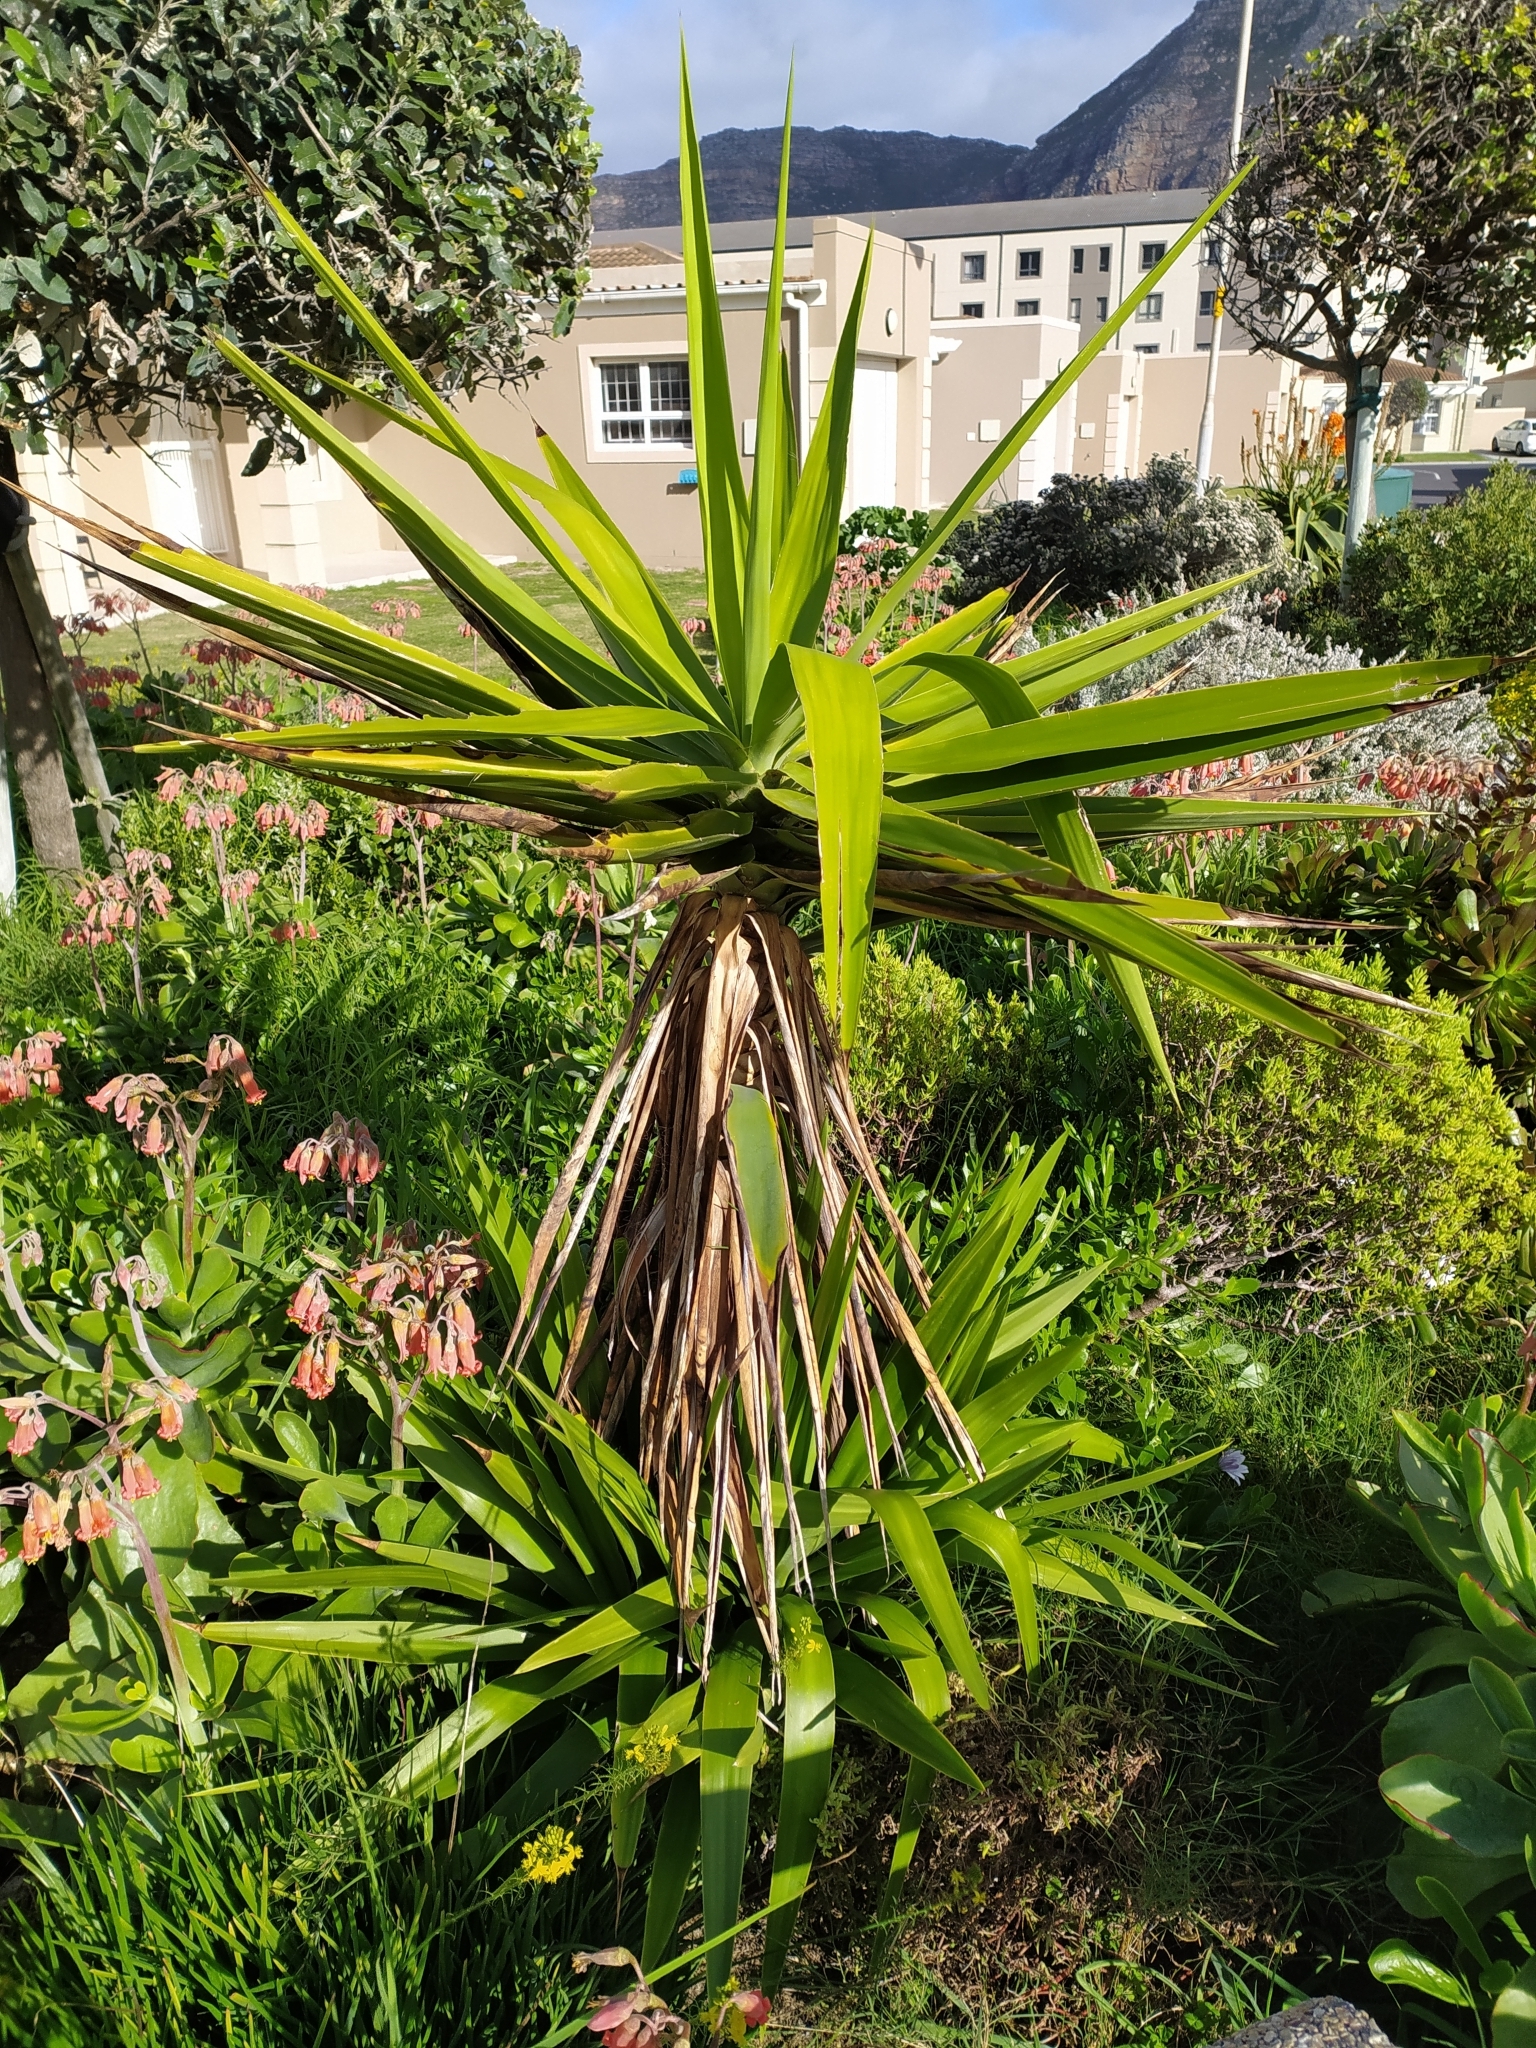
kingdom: Plantae
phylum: Tracheophyta
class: Liliopsida
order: Asparagales
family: Asparagaceae
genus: Yucca
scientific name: Yucca gigantea
